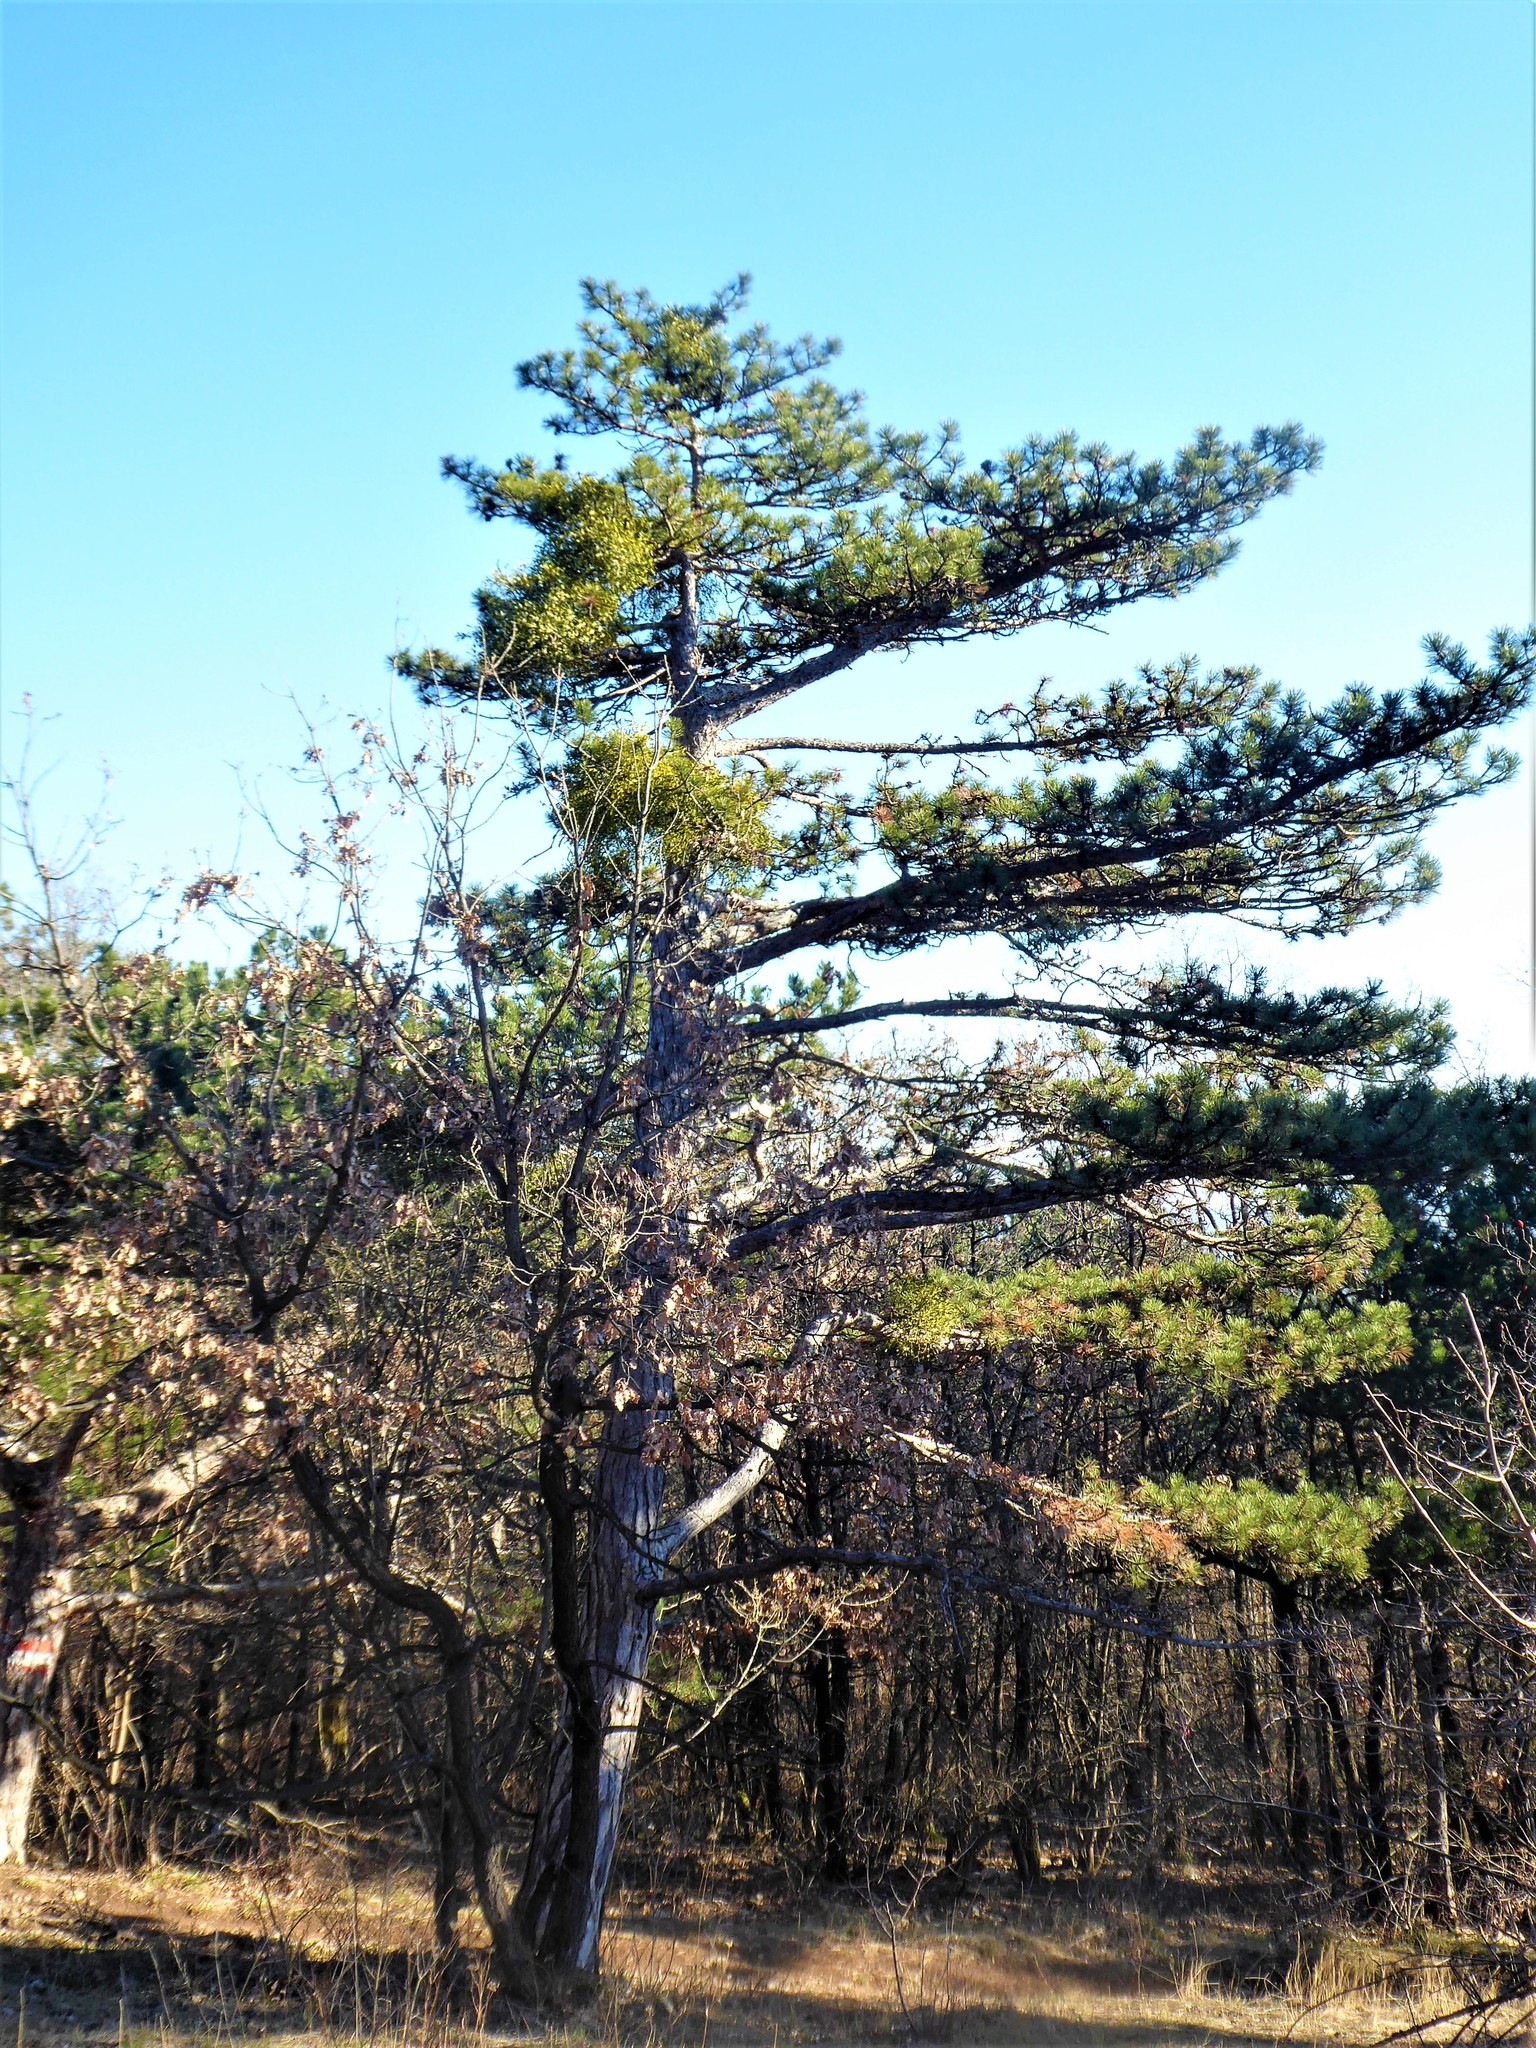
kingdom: Plantae
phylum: Tracheophyta
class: Magnoliopsida
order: Santalales
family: Viscaceae
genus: Viscum
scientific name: Viscum laxum
